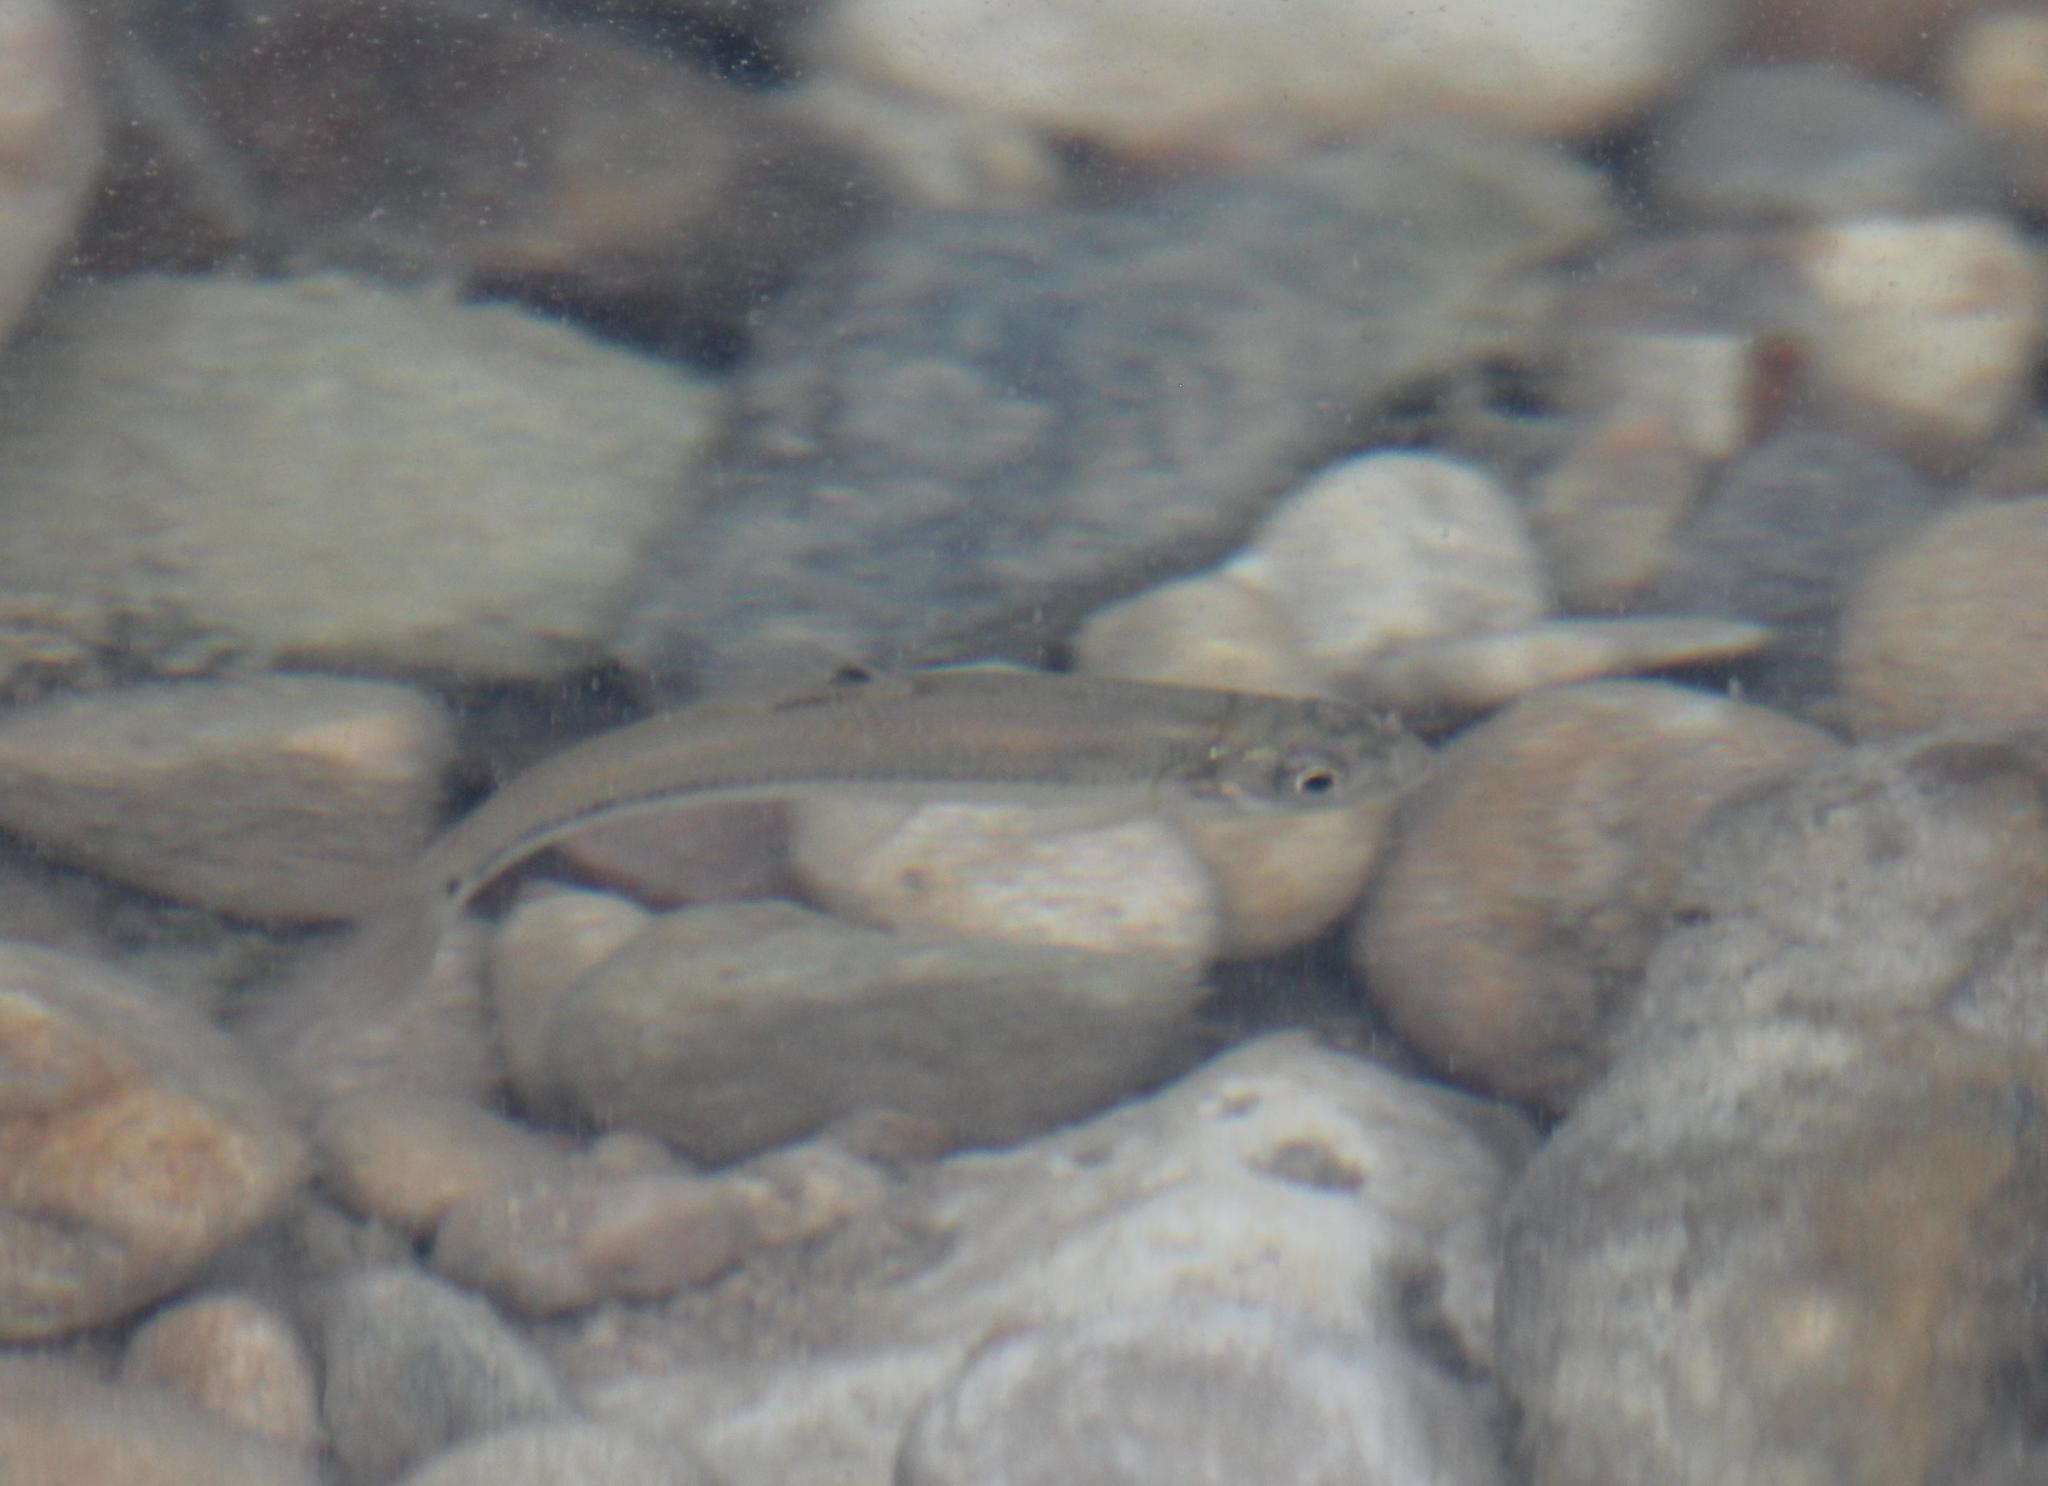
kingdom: Animalia
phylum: Chordata
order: Cypriniformes
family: Cyprinidae
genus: Pimephales
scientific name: Pimephales vigilax
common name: Bullhead minnow
